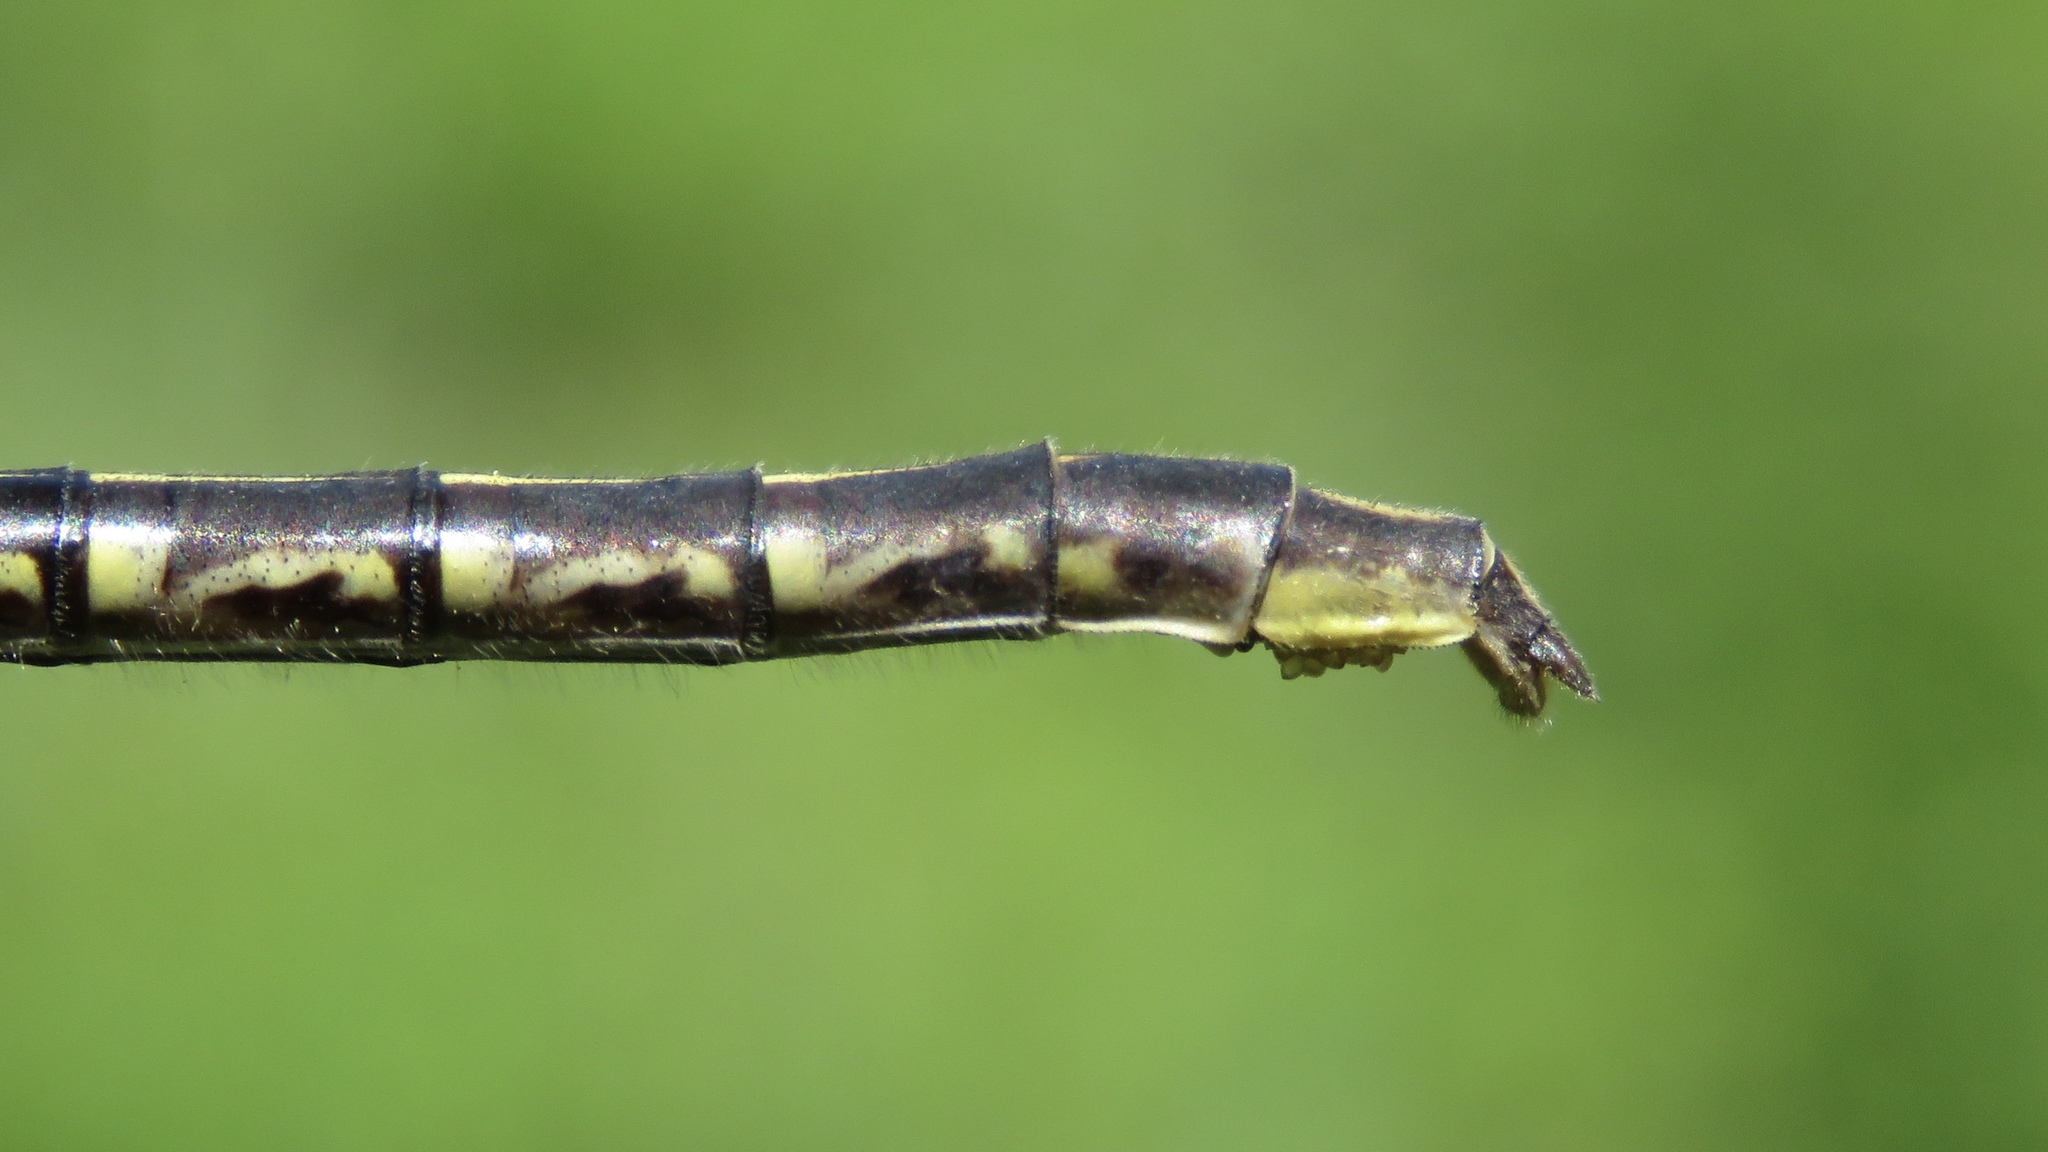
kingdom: Animalia
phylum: Arthropoda
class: Insecta
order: Odonata
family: Gomphidae
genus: Phanogomphus
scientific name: Phanogomphus exilis
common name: Lancet clubtail
